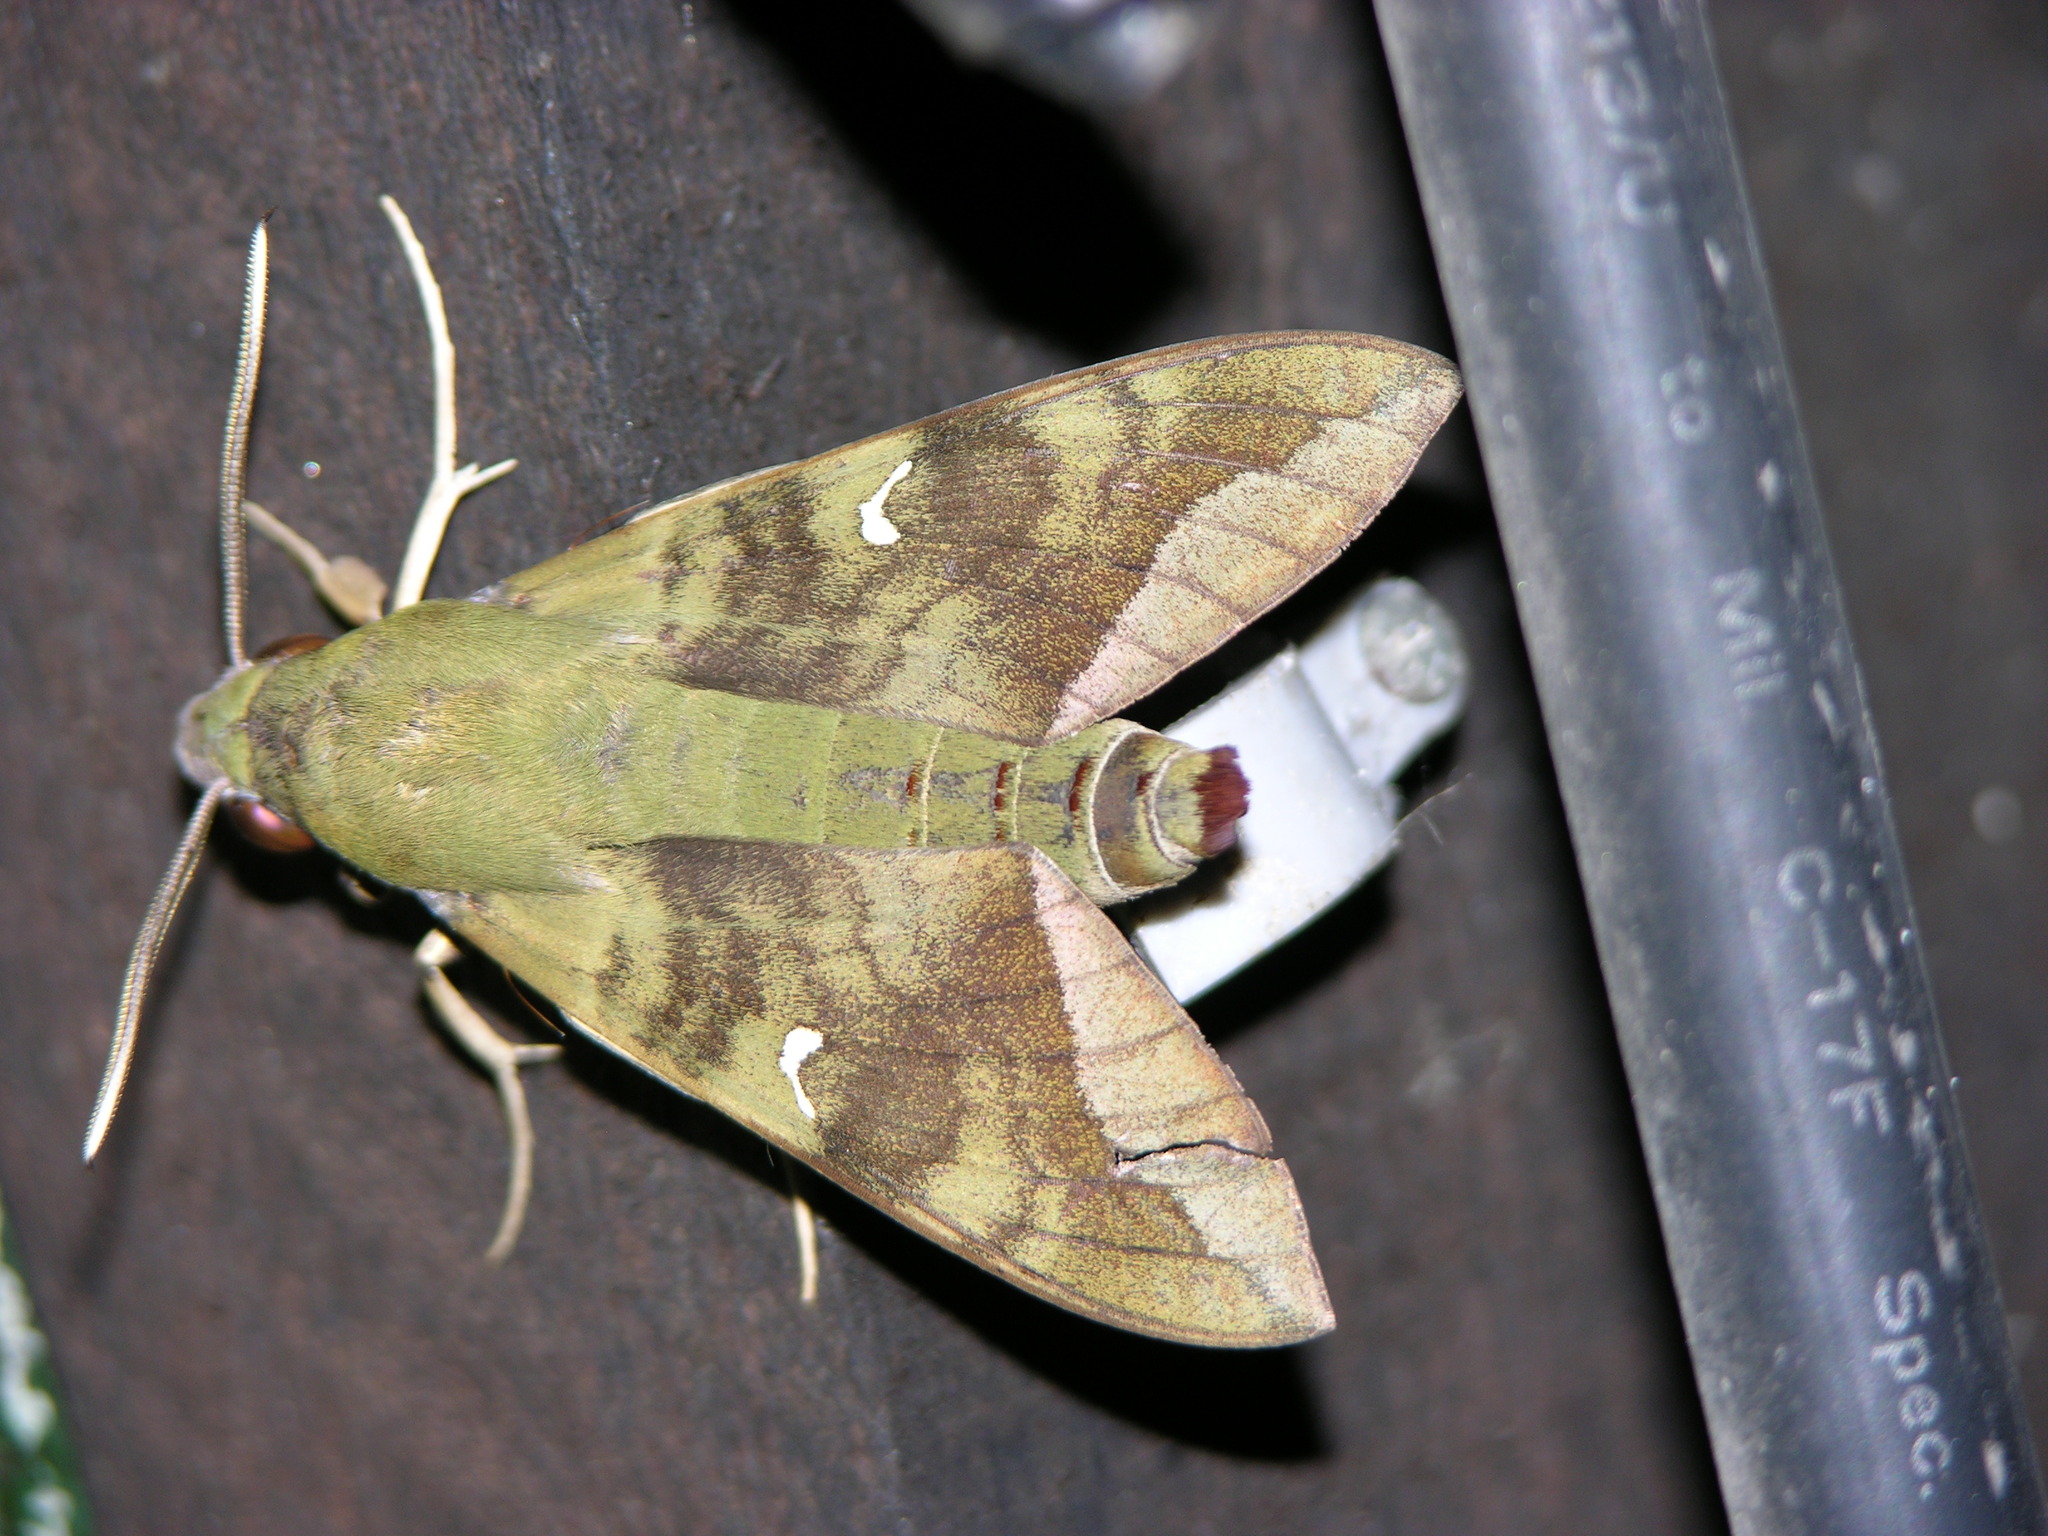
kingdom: Animalia
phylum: Arthropoda
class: Insecta
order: Lepidoptera
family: Sphingidae
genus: Nephele
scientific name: Nephele comma
